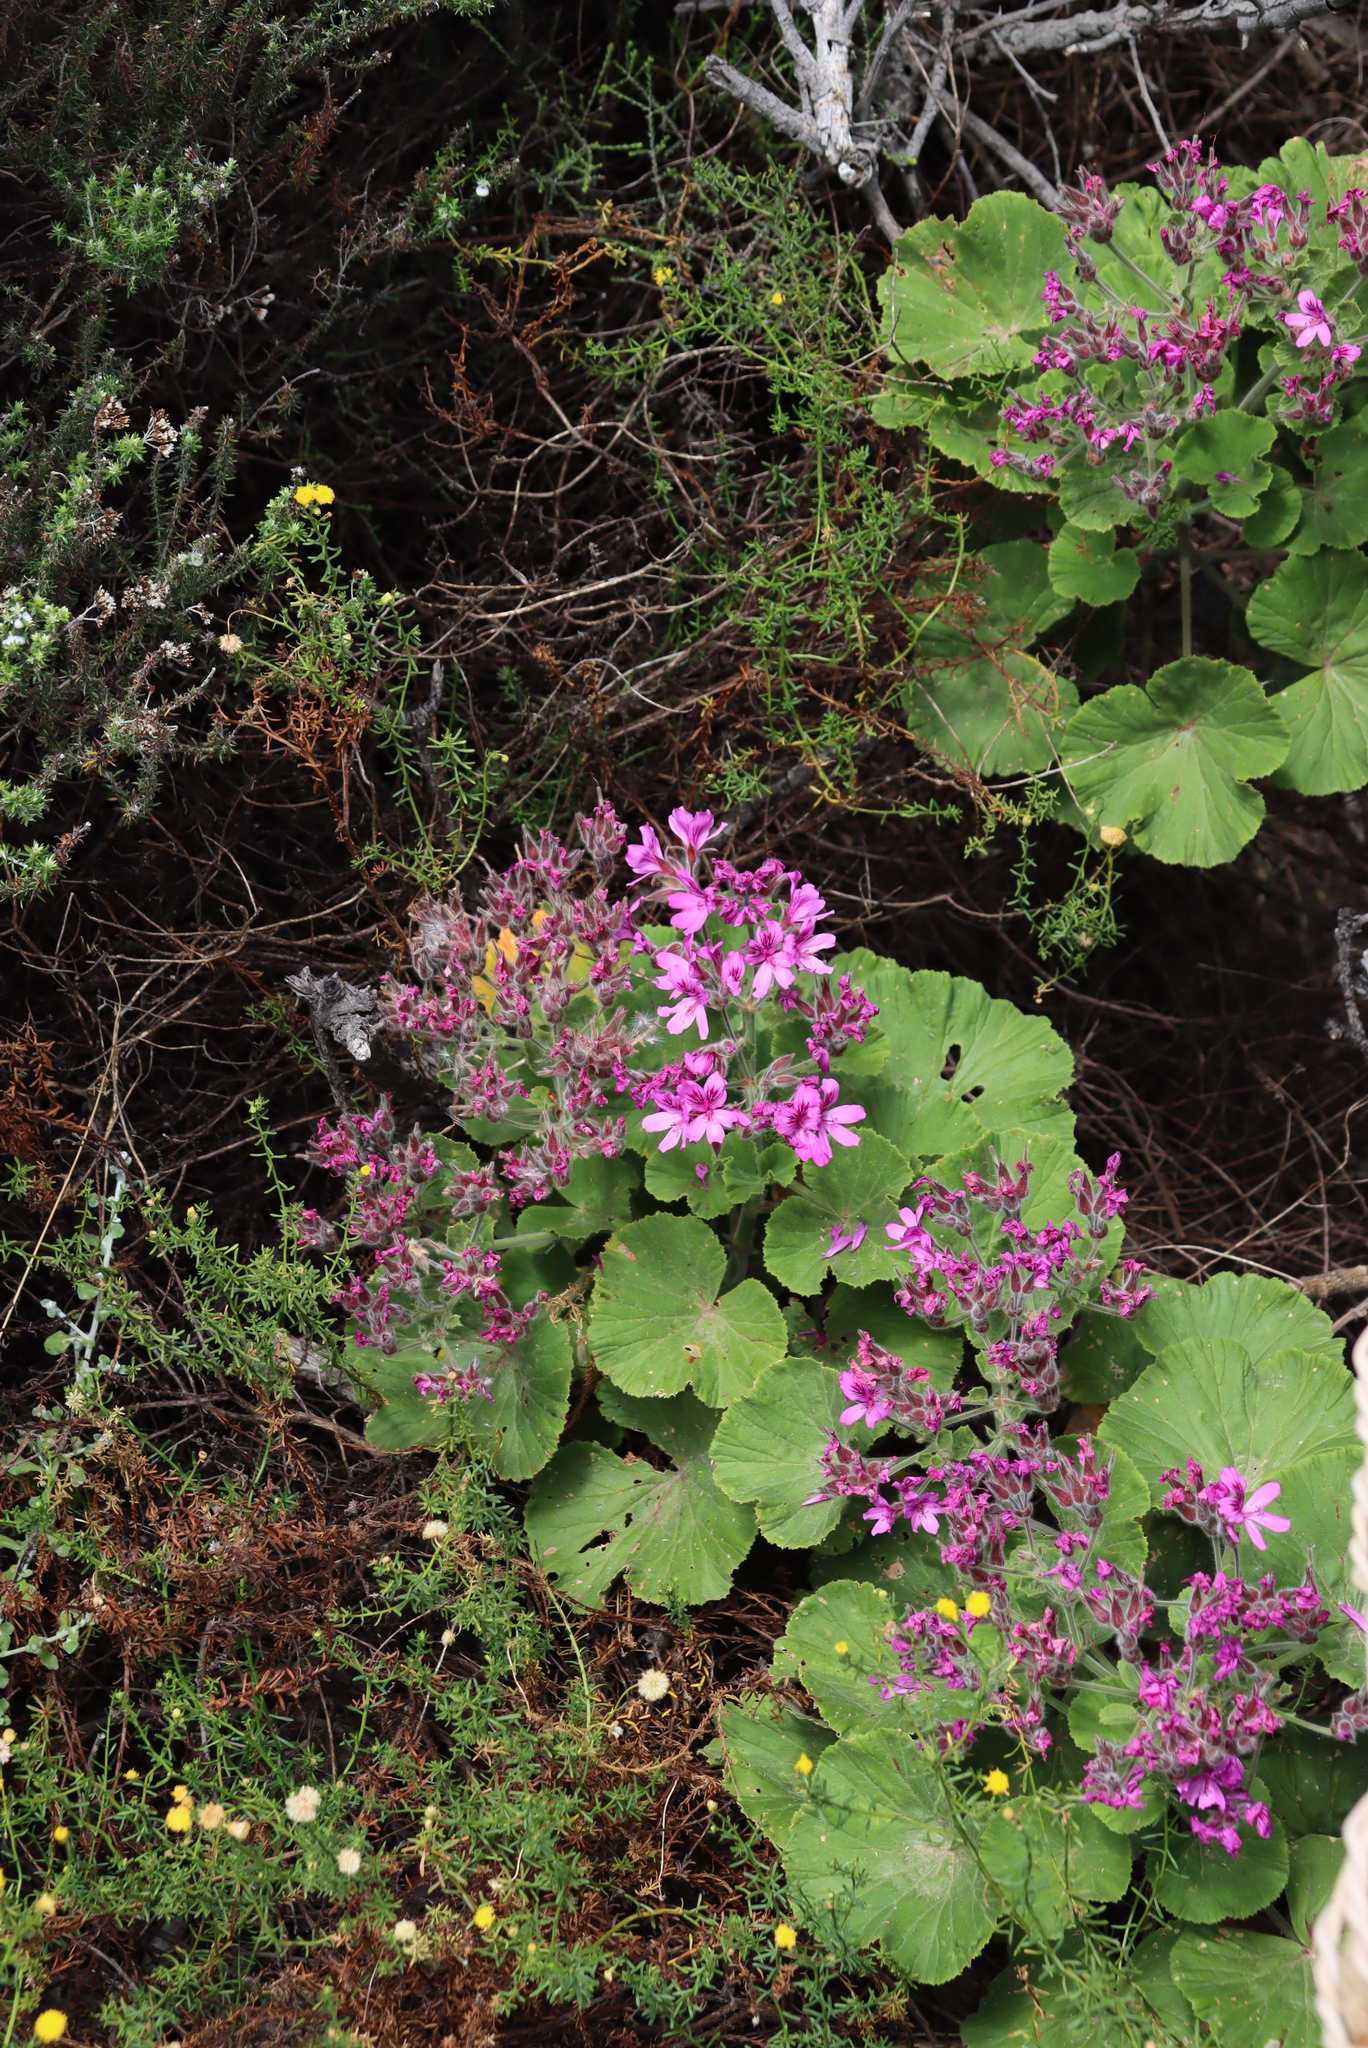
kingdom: Plantae
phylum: Tracheophyta
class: Magnoliopsida
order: Geraniales
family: Geraniaceae
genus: Pelargonium
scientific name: Pelargonium cucullatum
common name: Tree pelargonium
